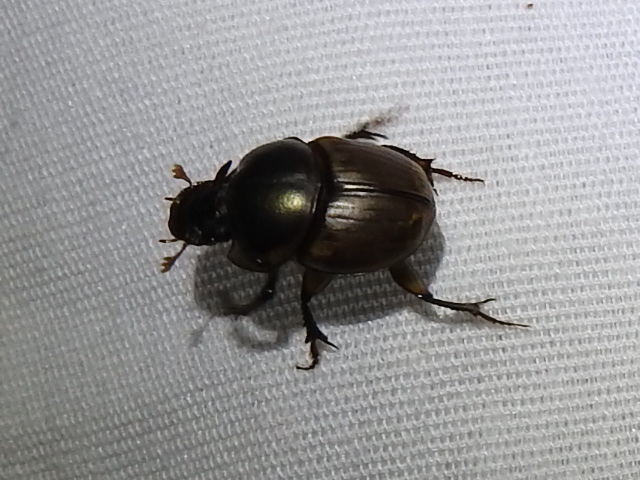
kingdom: Animalia
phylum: Arthropoda
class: Insecta
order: Coleoptera
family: Scarabaeidae
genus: Digitonthophagus
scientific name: Digitonthophagus gazella
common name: Brown dung beetle
